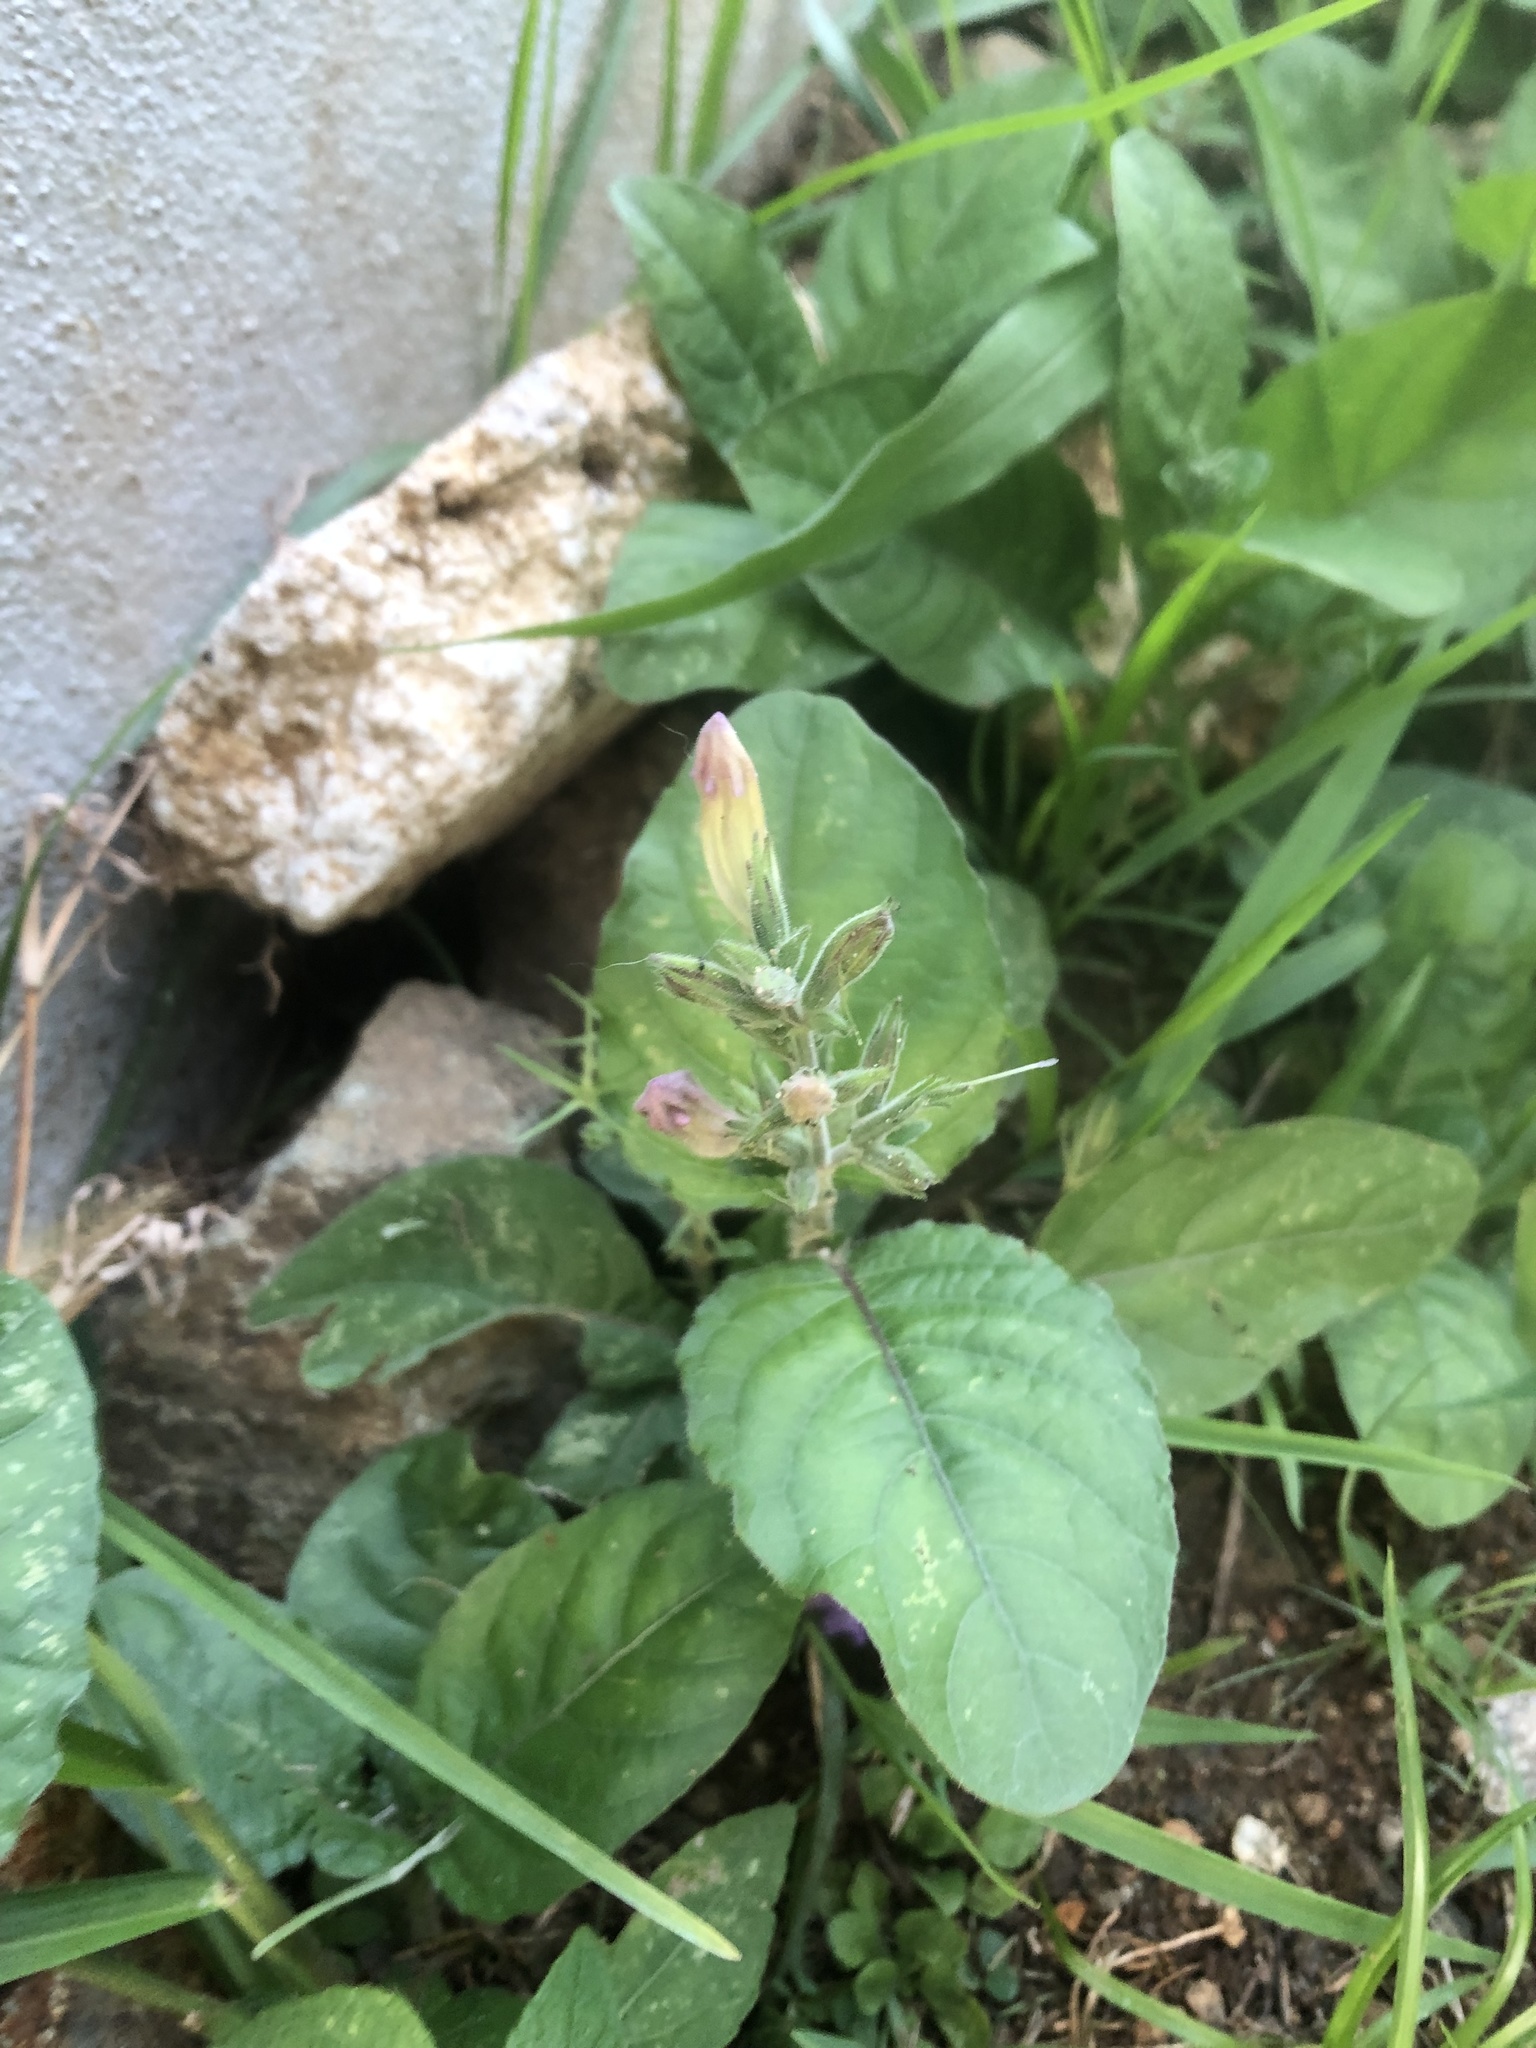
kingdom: Plantae
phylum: Tracheophyta
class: Magnoliopsida
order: Lamiales
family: Acanthaceae
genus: Ruellia
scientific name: Ruellia ciliatiflora
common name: Hairyflower wild petunia
